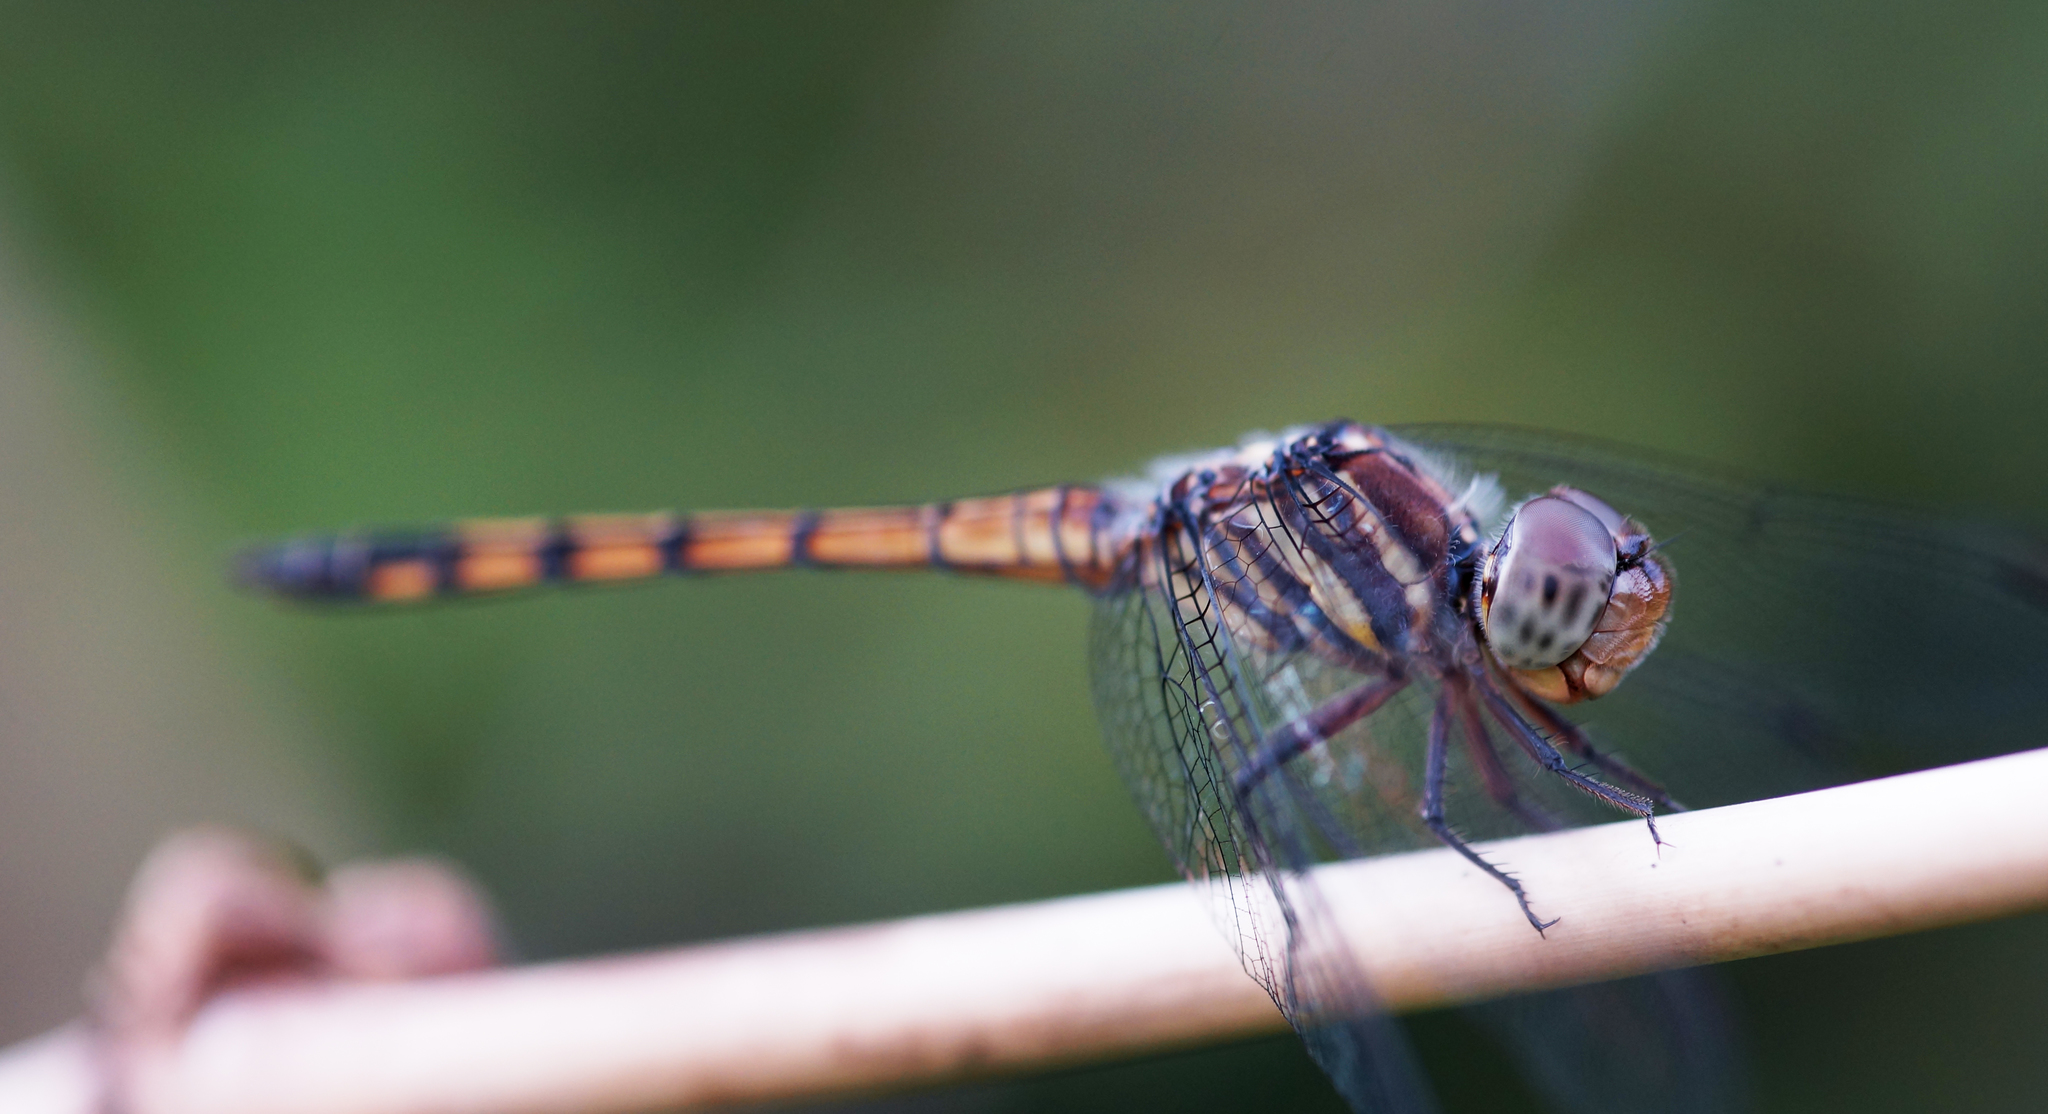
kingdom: Animalia
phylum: Arthropoda
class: Insecta
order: Odonata
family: Libellulidae
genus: Potamarcha
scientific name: Potamarcha congener
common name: Blue chaser
